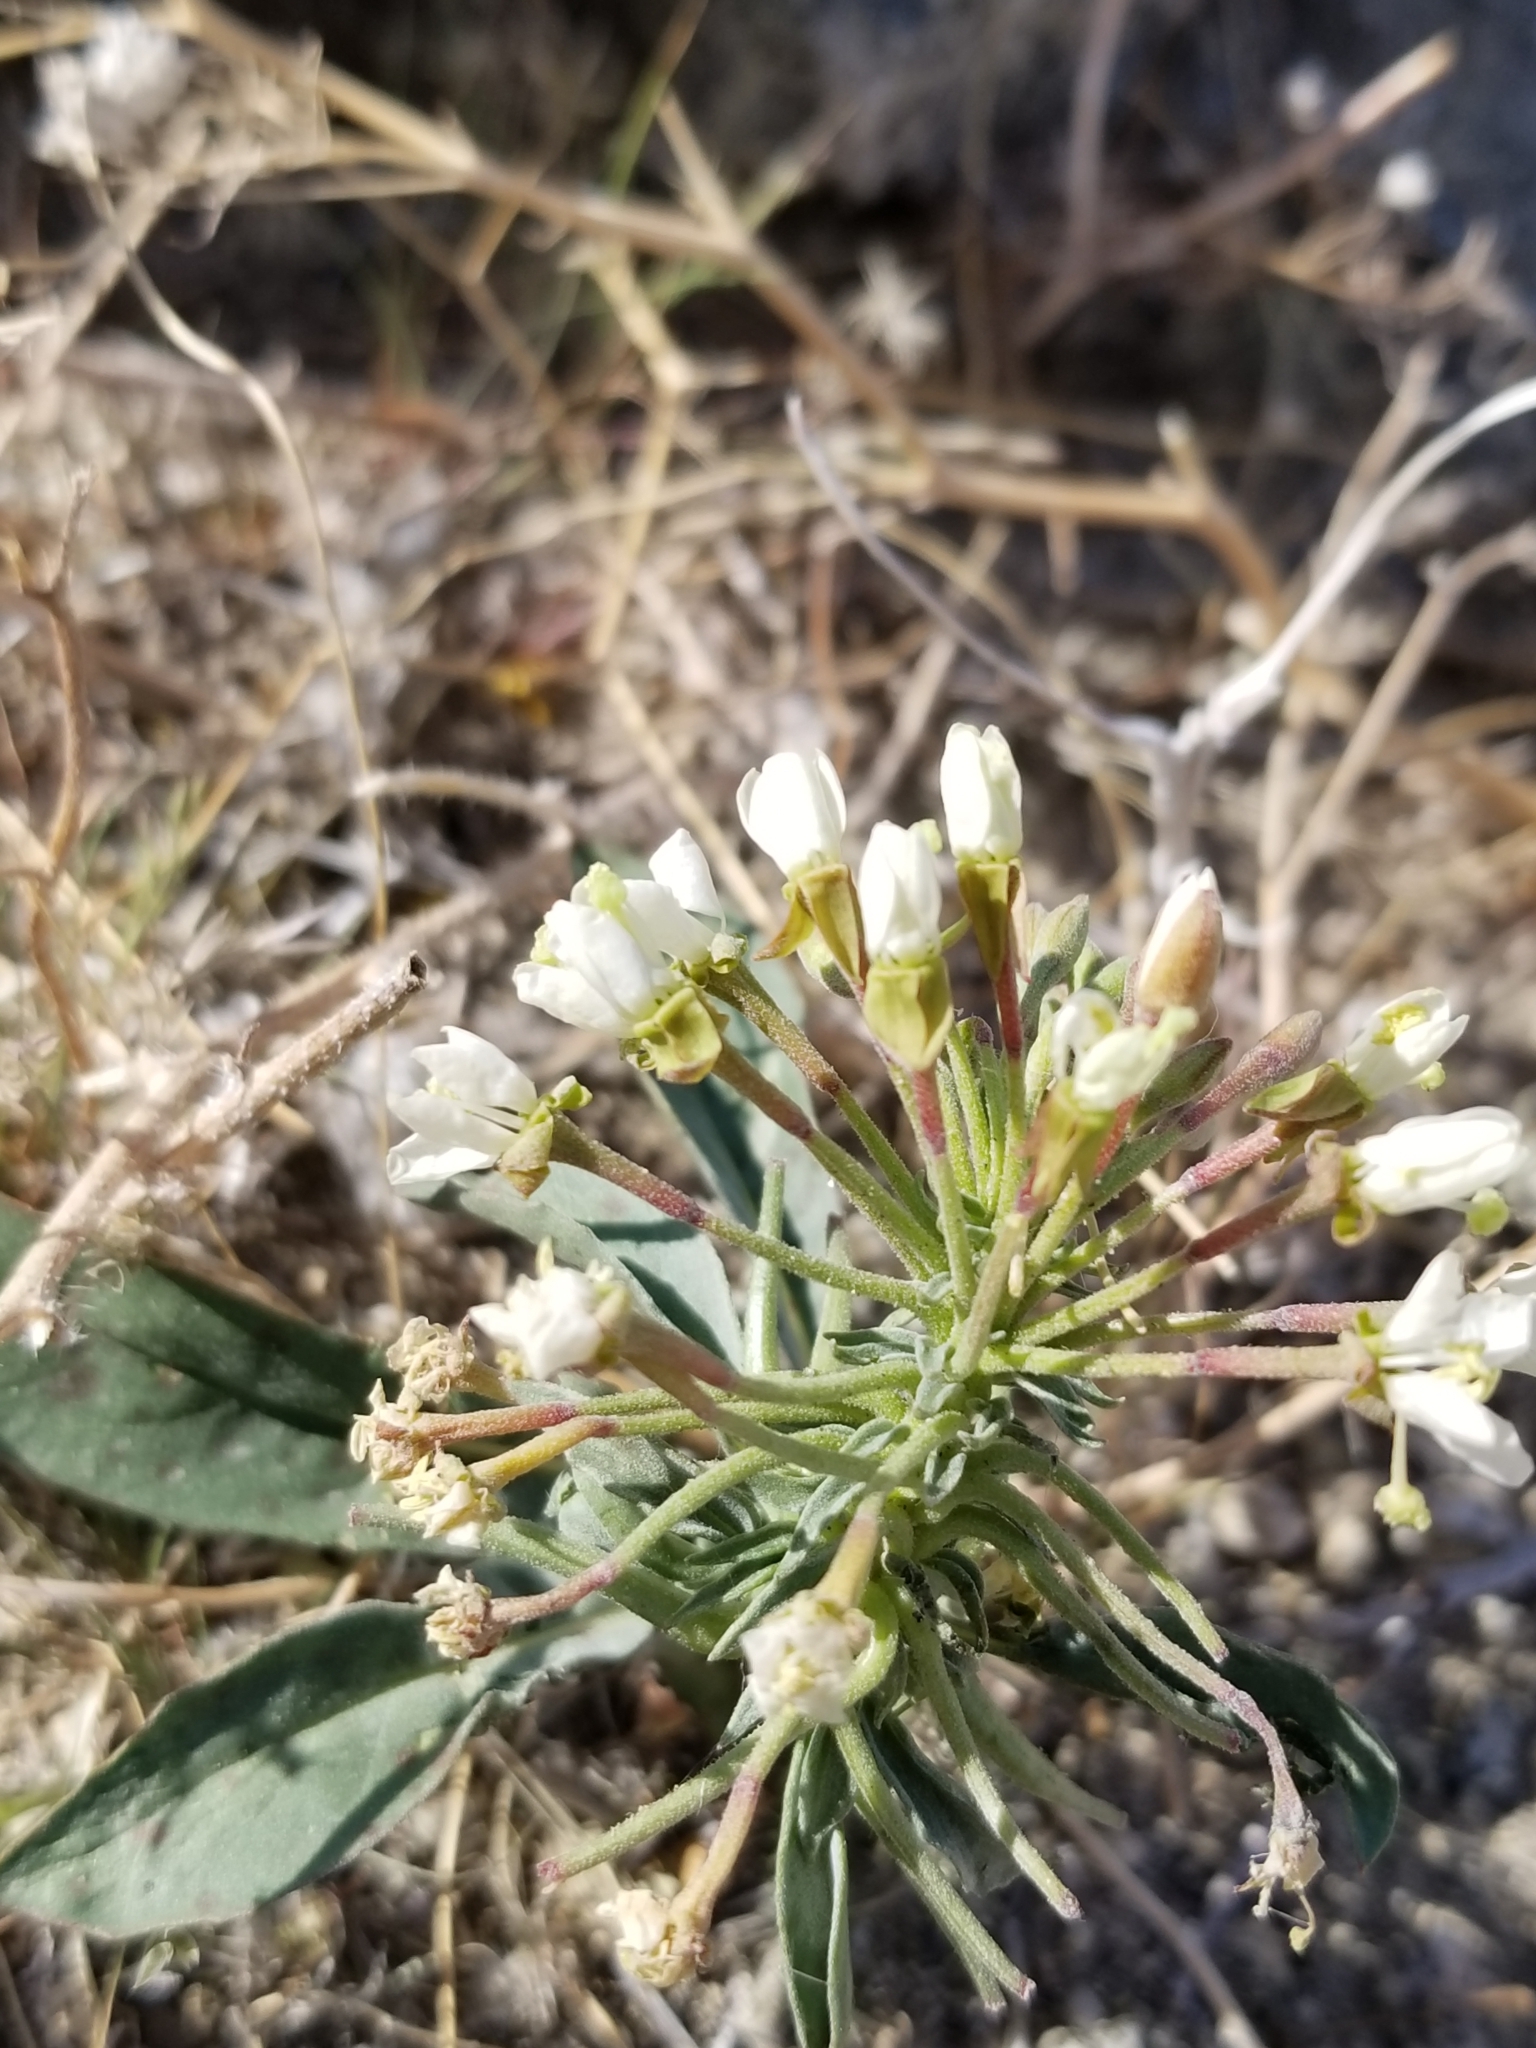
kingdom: Plantae
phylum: Tracheophyta
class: Magnoliopsida
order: Myrtales
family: Onagraceae
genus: Eremothera
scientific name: Eremothera boothii
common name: Booth's evening primrose
